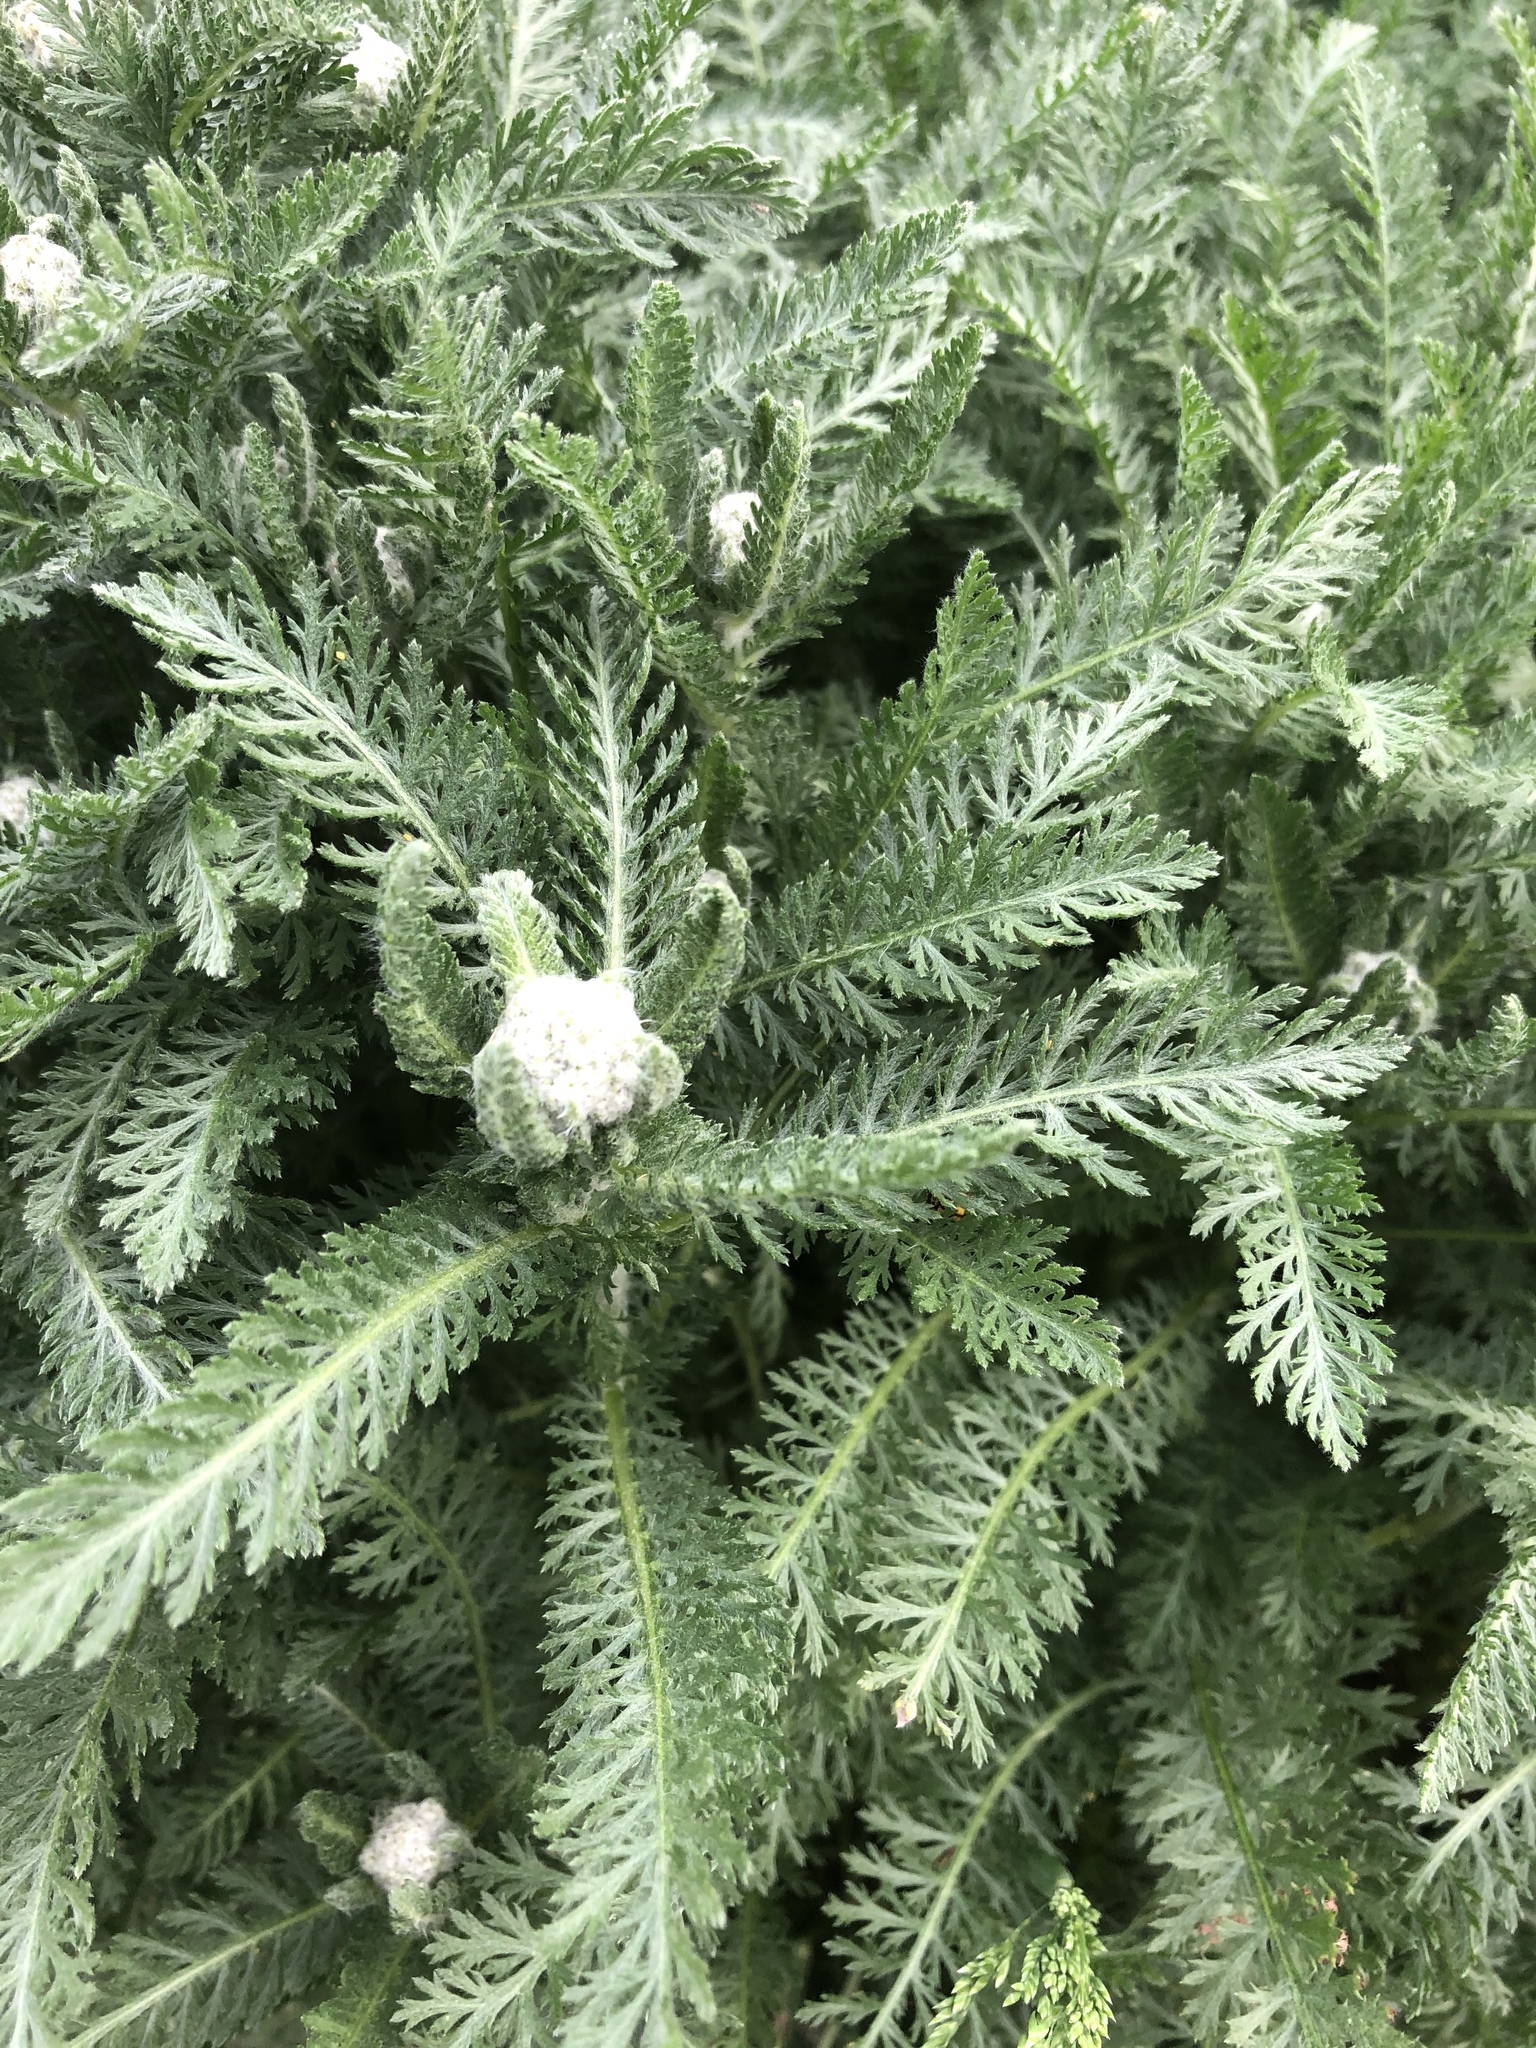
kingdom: Plantae
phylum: Tracheophyta
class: Magnoliopsida
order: Asterales
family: Asteraceae
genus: Achillea
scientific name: Achillea millefolium
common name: Yarrow
